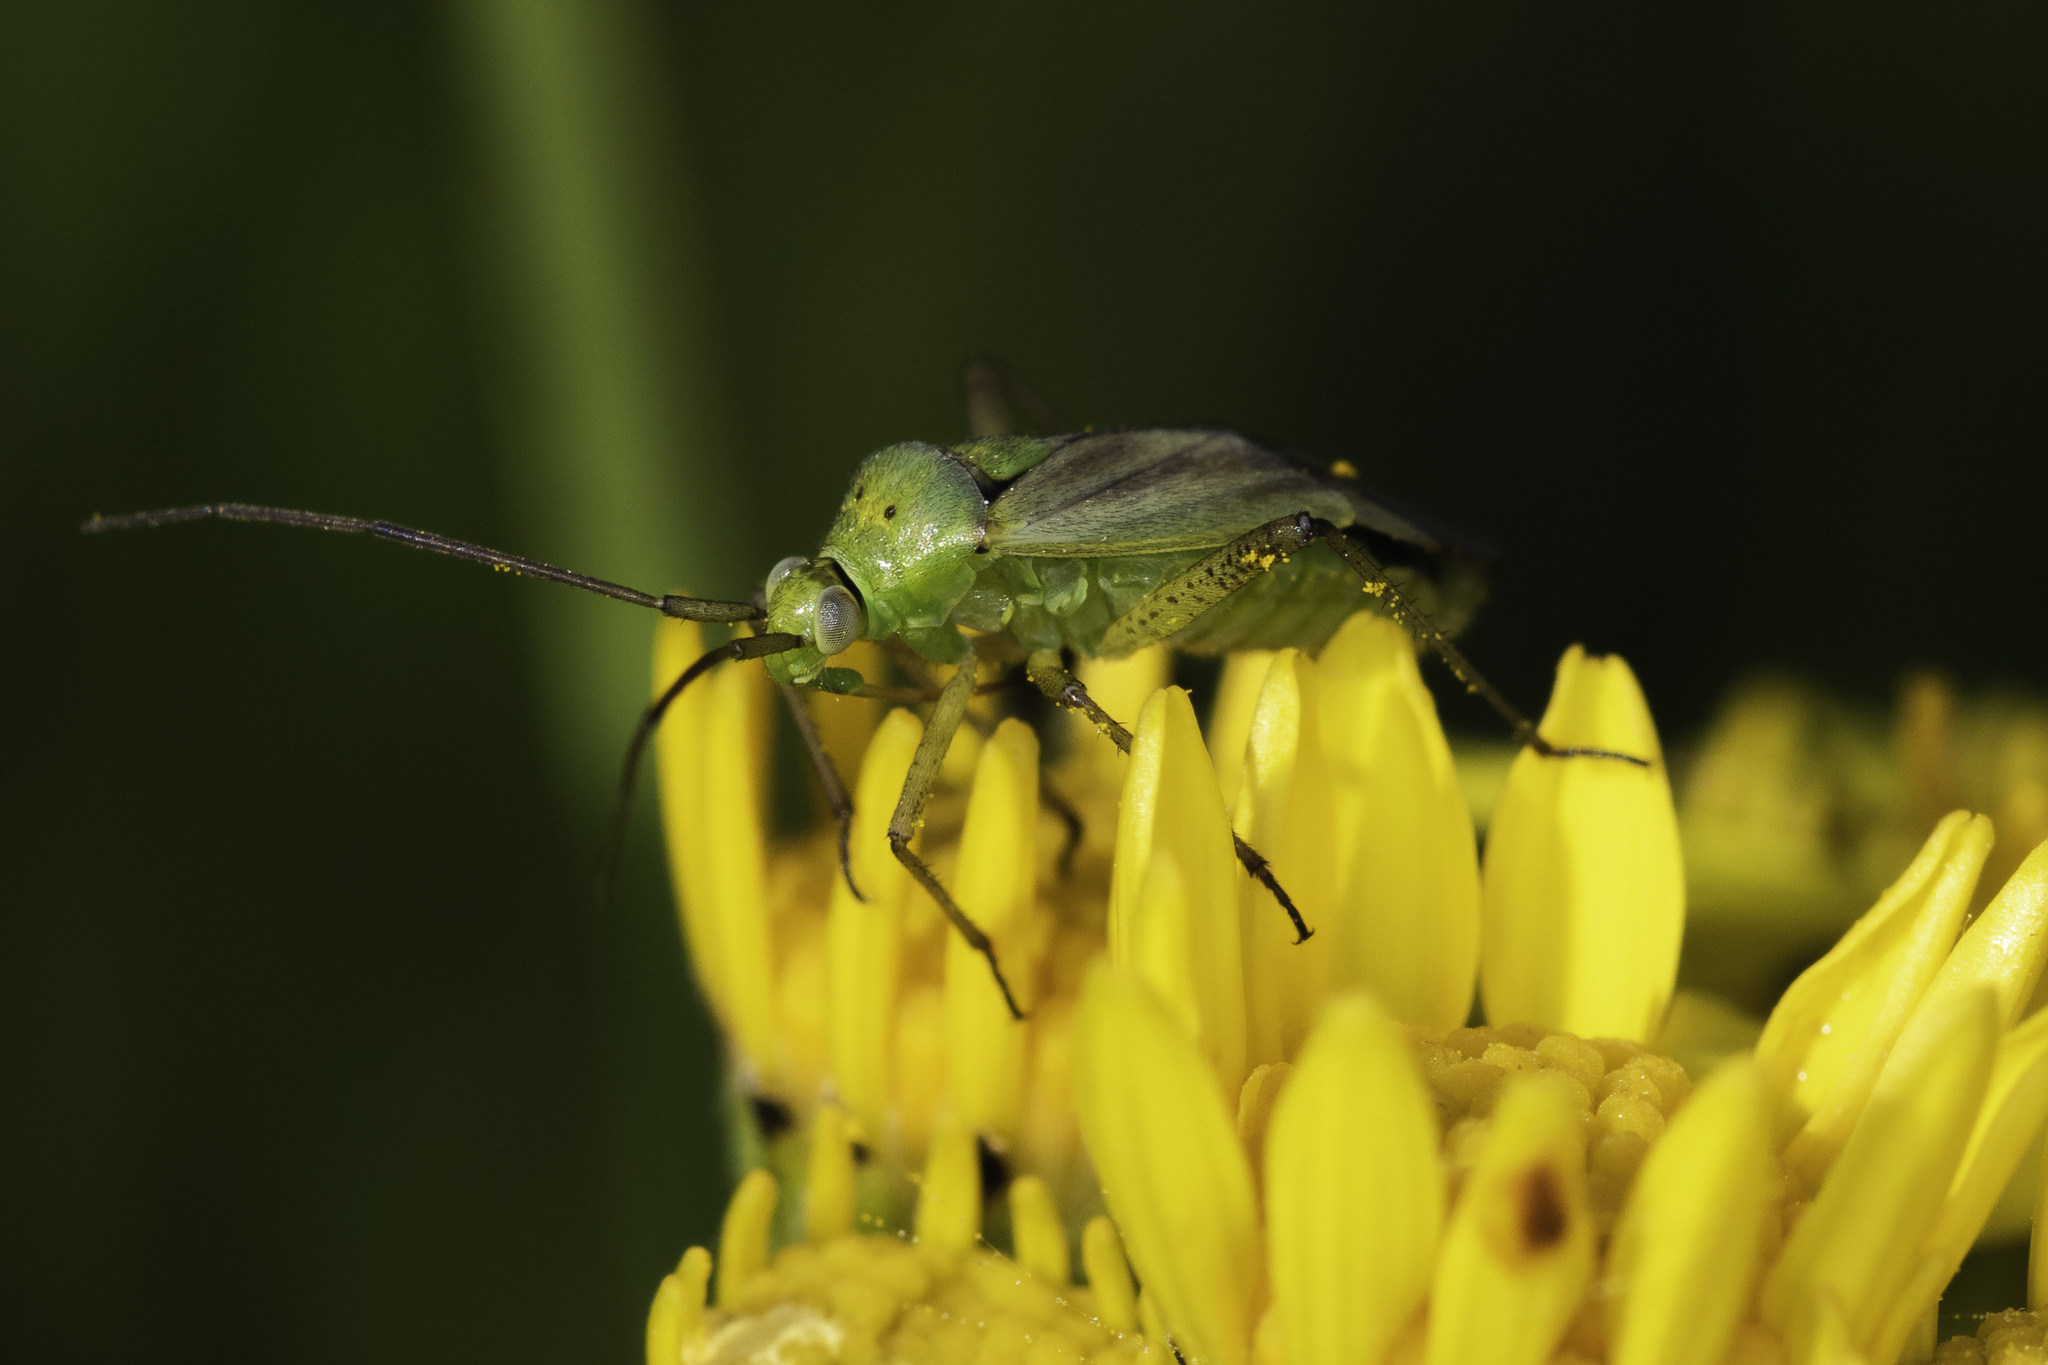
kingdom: Animalia
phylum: Arthropoda
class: Insecta
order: Hemiptera
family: Miridae
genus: Closterotomus
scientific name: Closterotomus norvegicus
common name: Plant bug
